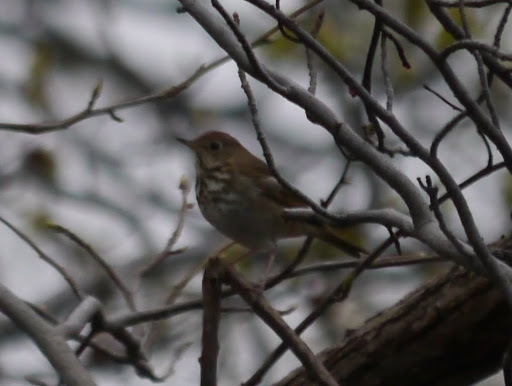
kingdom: Animalia
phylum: Chordata
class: Aves
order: Passeriformes
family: Turdidae
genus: Catharus
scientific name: Catharus guttatus
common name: Hermit thrush
